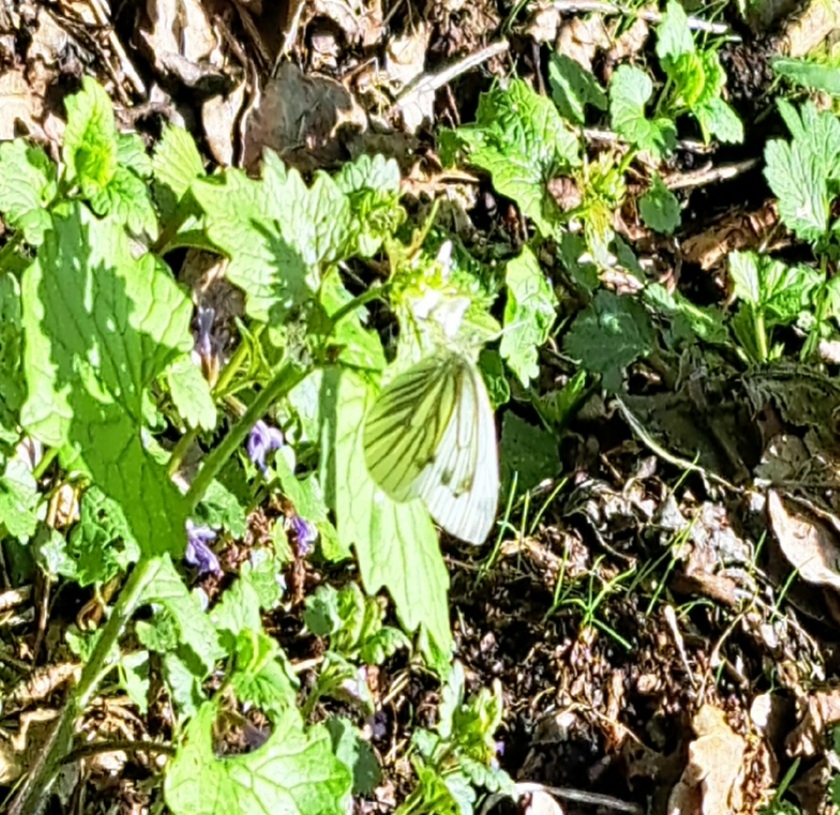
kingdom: Animalia
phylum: Arthropoda
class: Insecta
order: Lepidoptera
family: Pieridae
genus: Pieris
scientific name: Pieris napi
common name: Green-veined white
